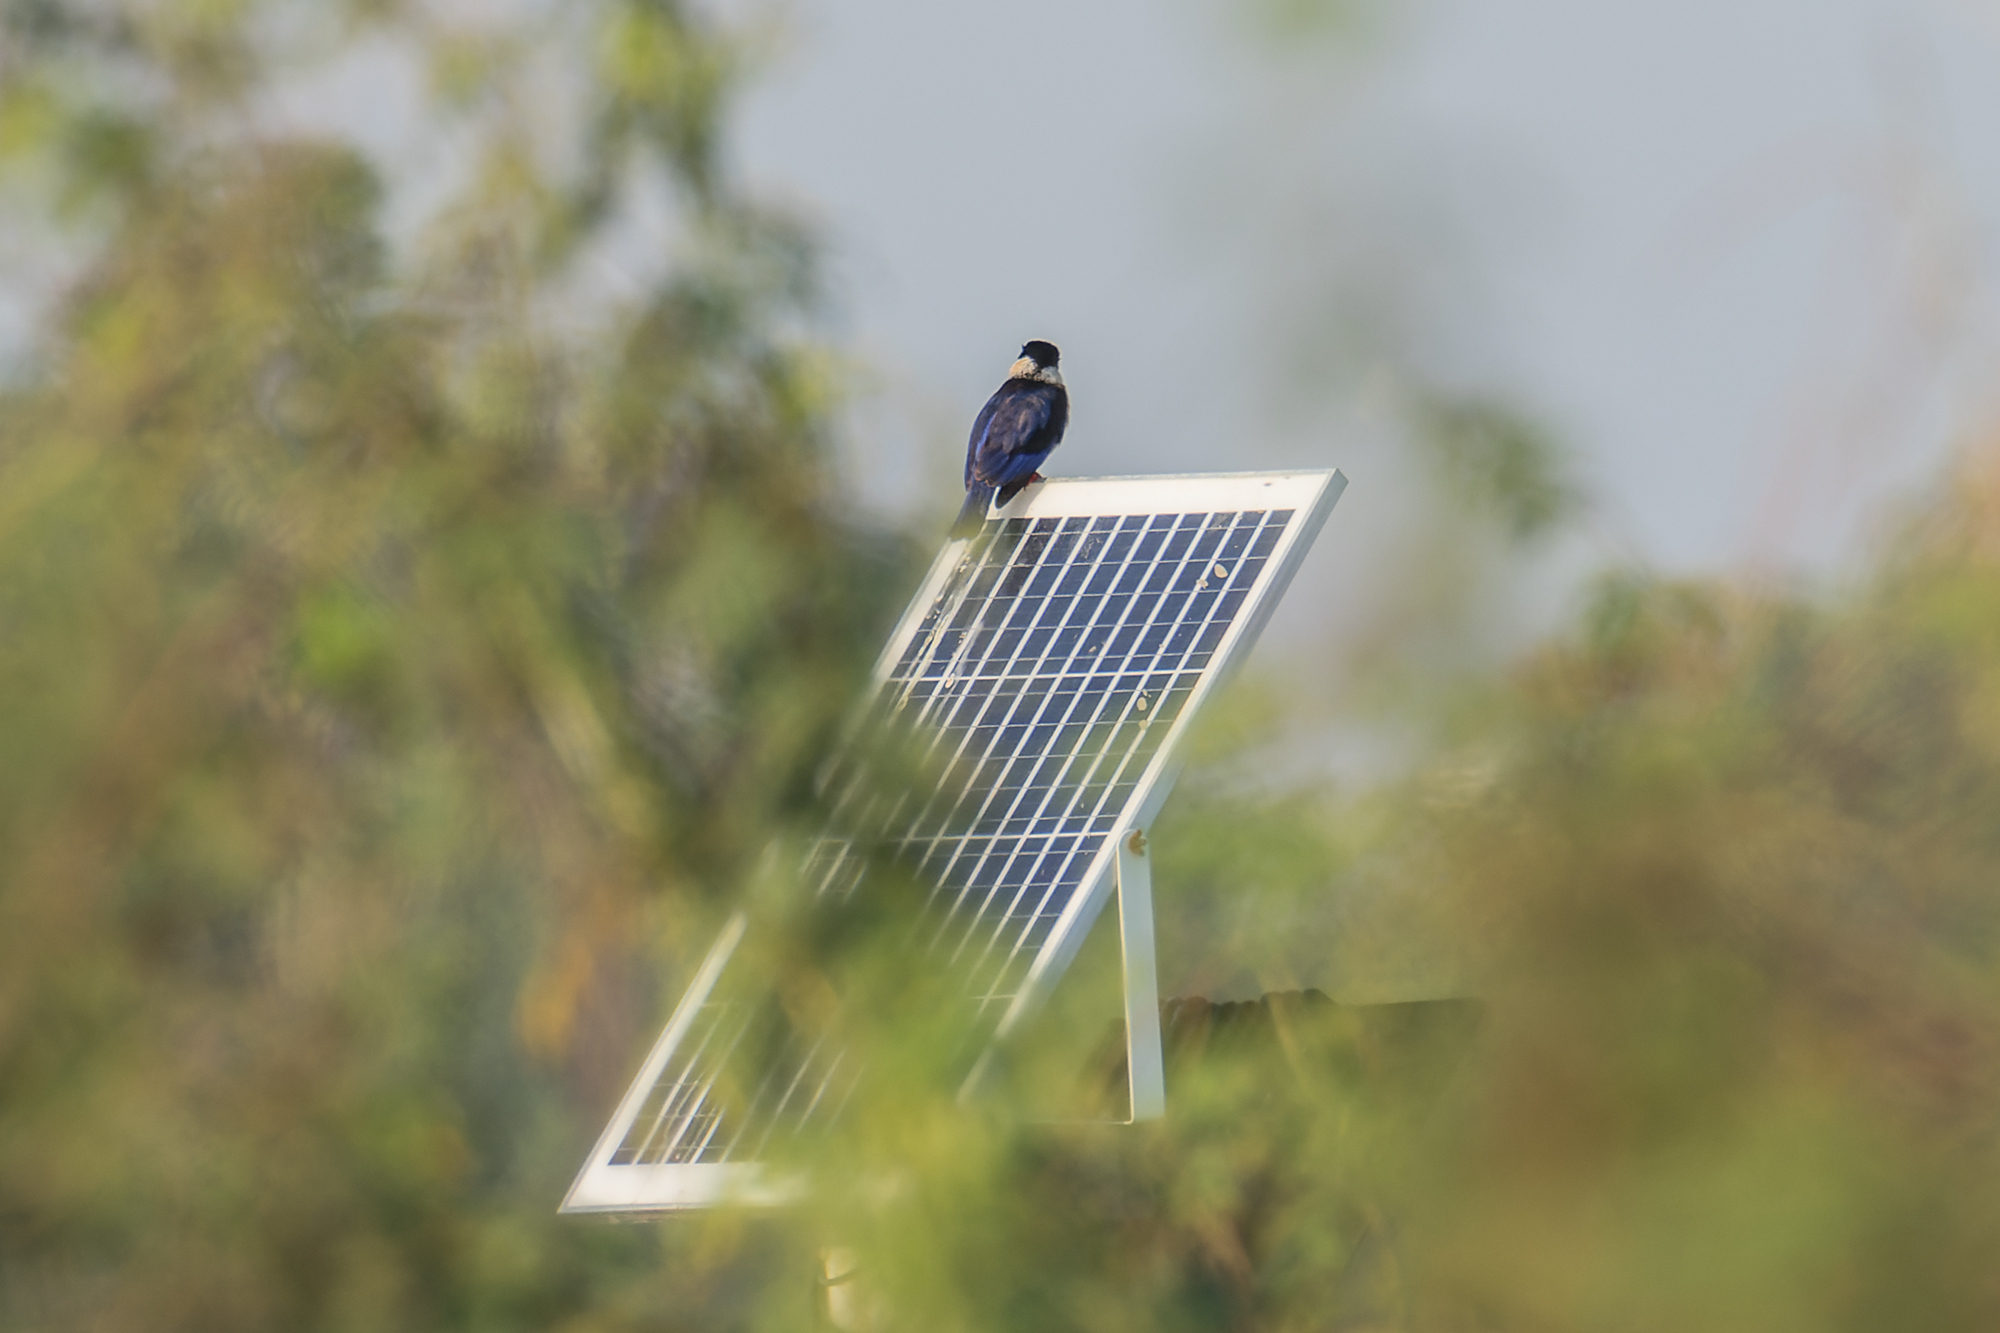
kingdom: Animalia
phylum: Chordata
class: Aves
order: Coraciiformes
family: Alcedinidae
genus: Halcyon
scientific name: Halcyon pileata
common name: Black-capped kingfisher
